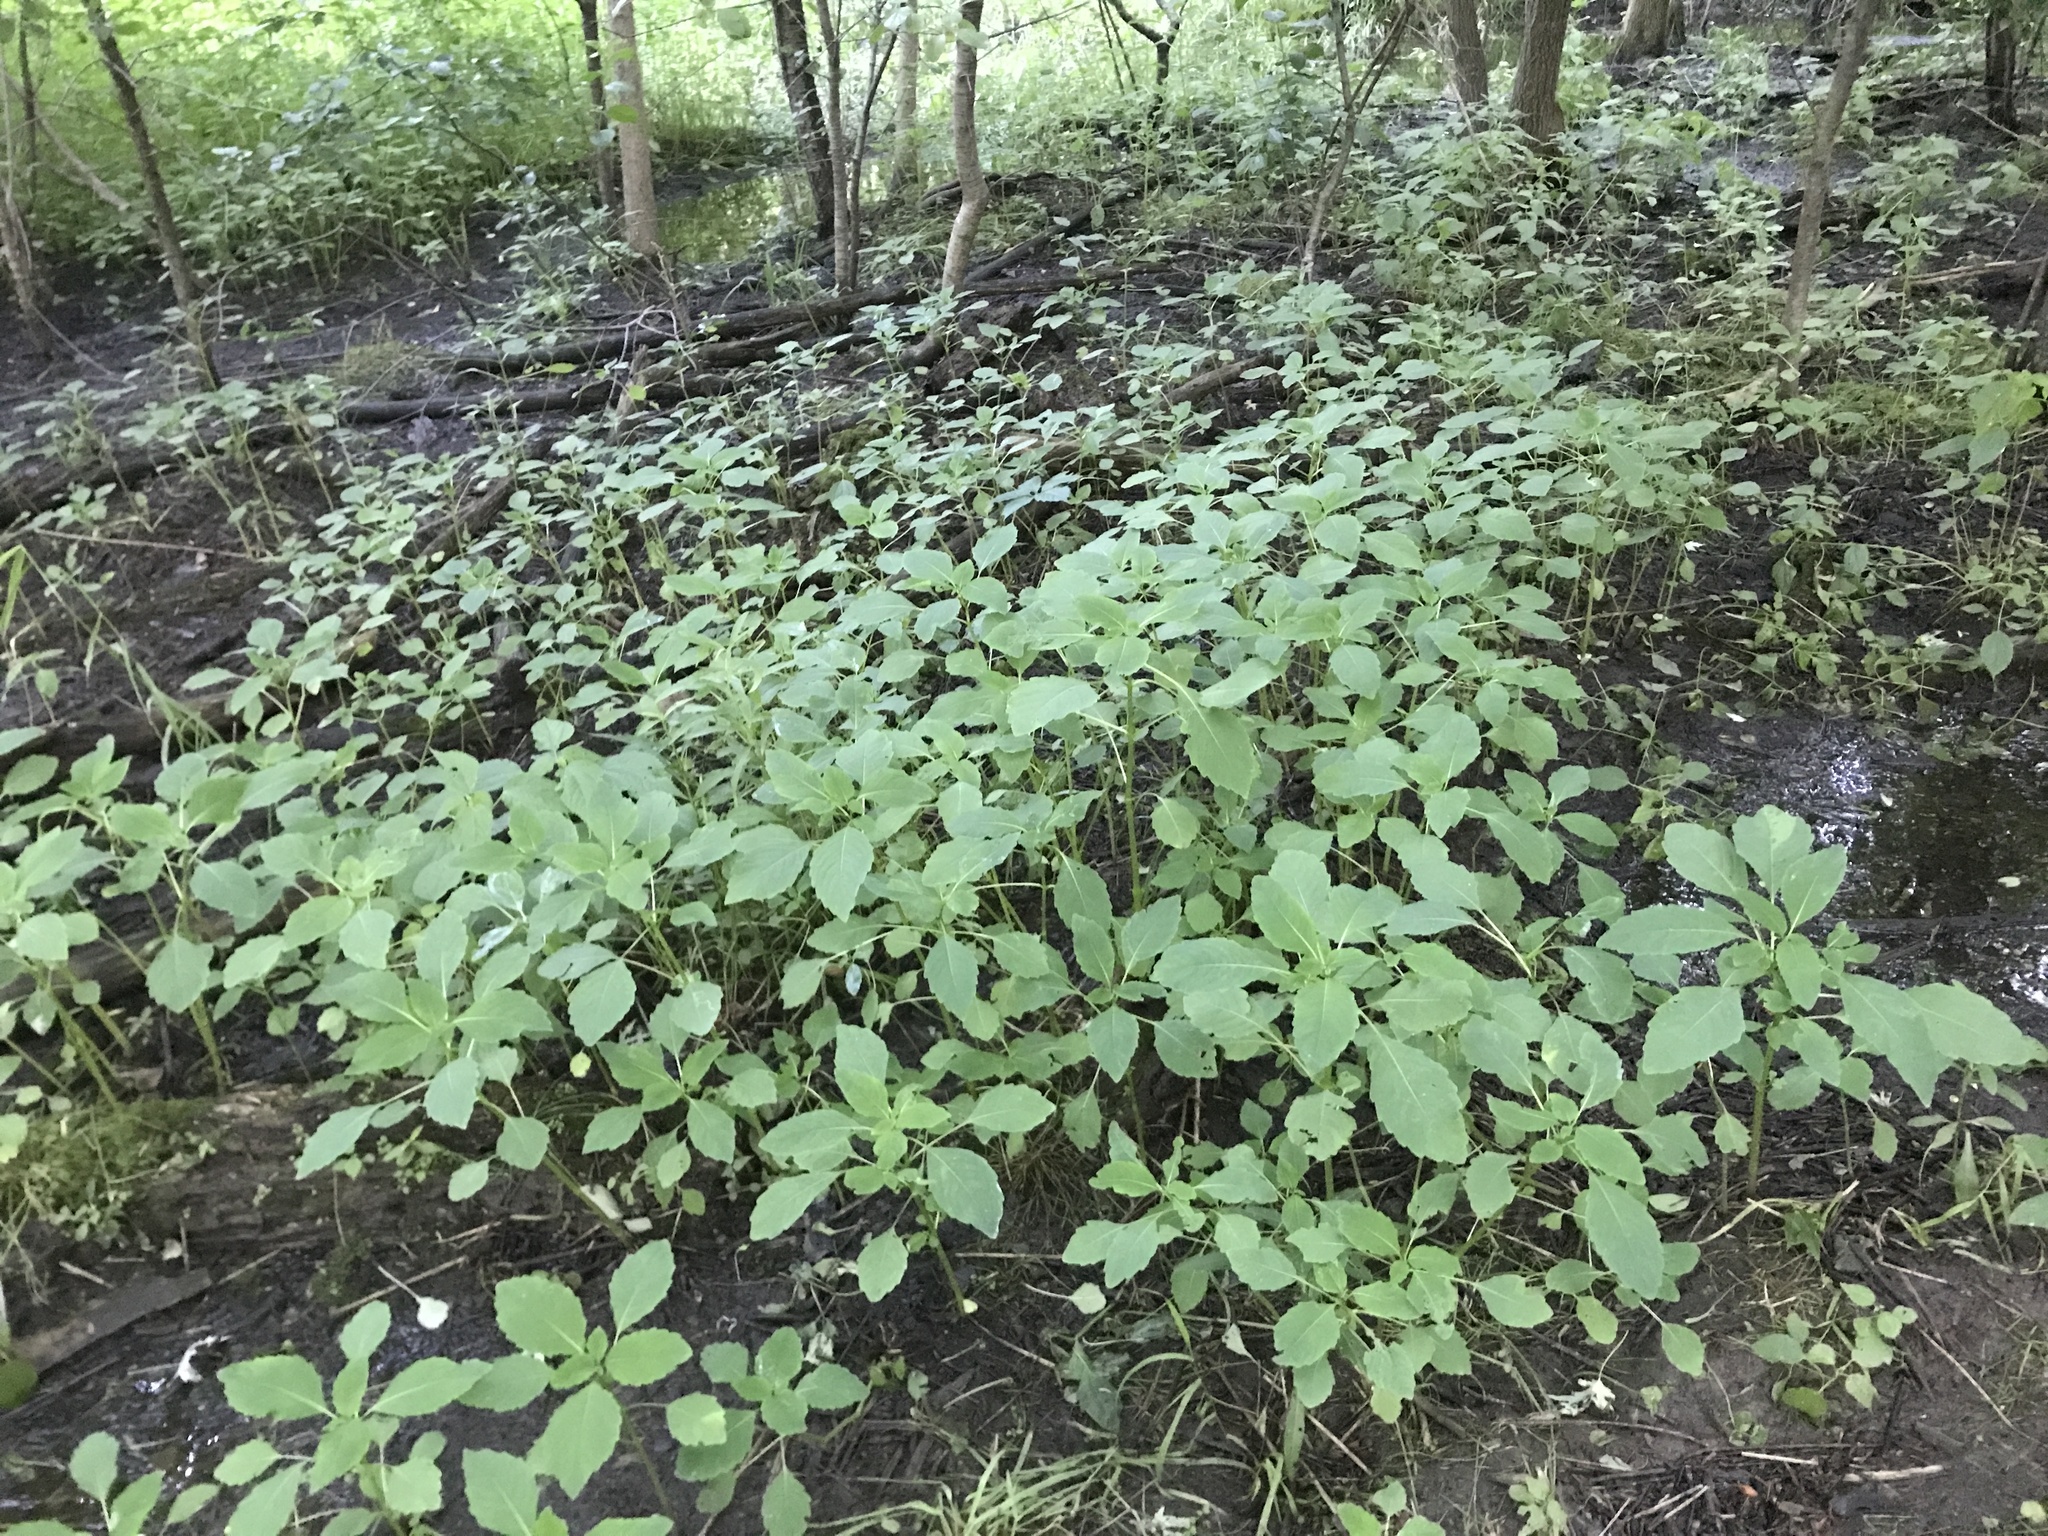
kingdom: Plantae
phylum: Tracheophyta
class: Magnoliopsida
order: Ericales
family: Balsaminaceae
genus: Impatiens
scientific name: Impatiens capensis
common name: Orange balsam
